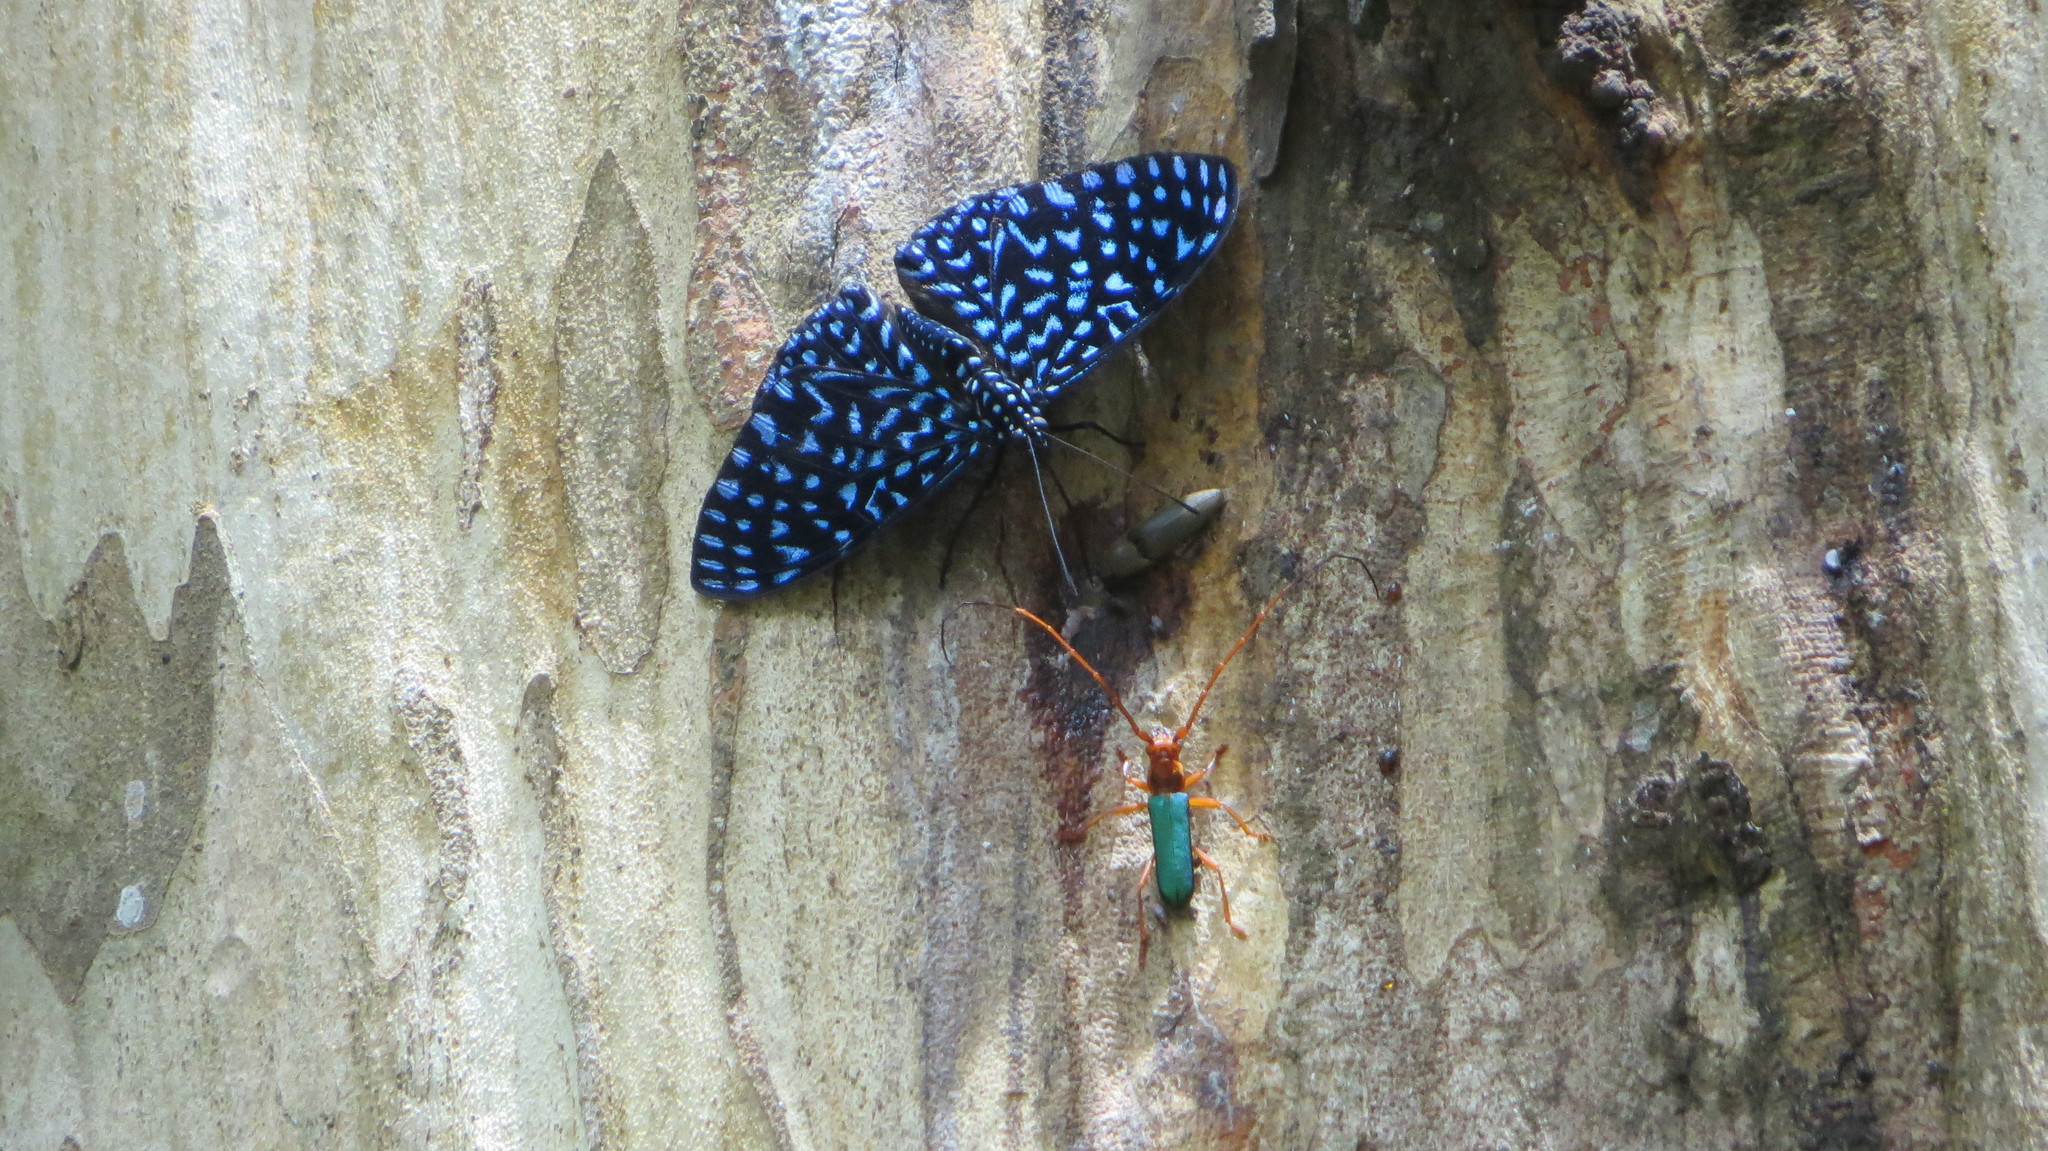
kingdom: Animalia
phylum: Arthropoda
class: Insecta
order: Lepidoptera
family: Nymphalidae
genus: Hamadryas
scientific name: Hamadryas arete
